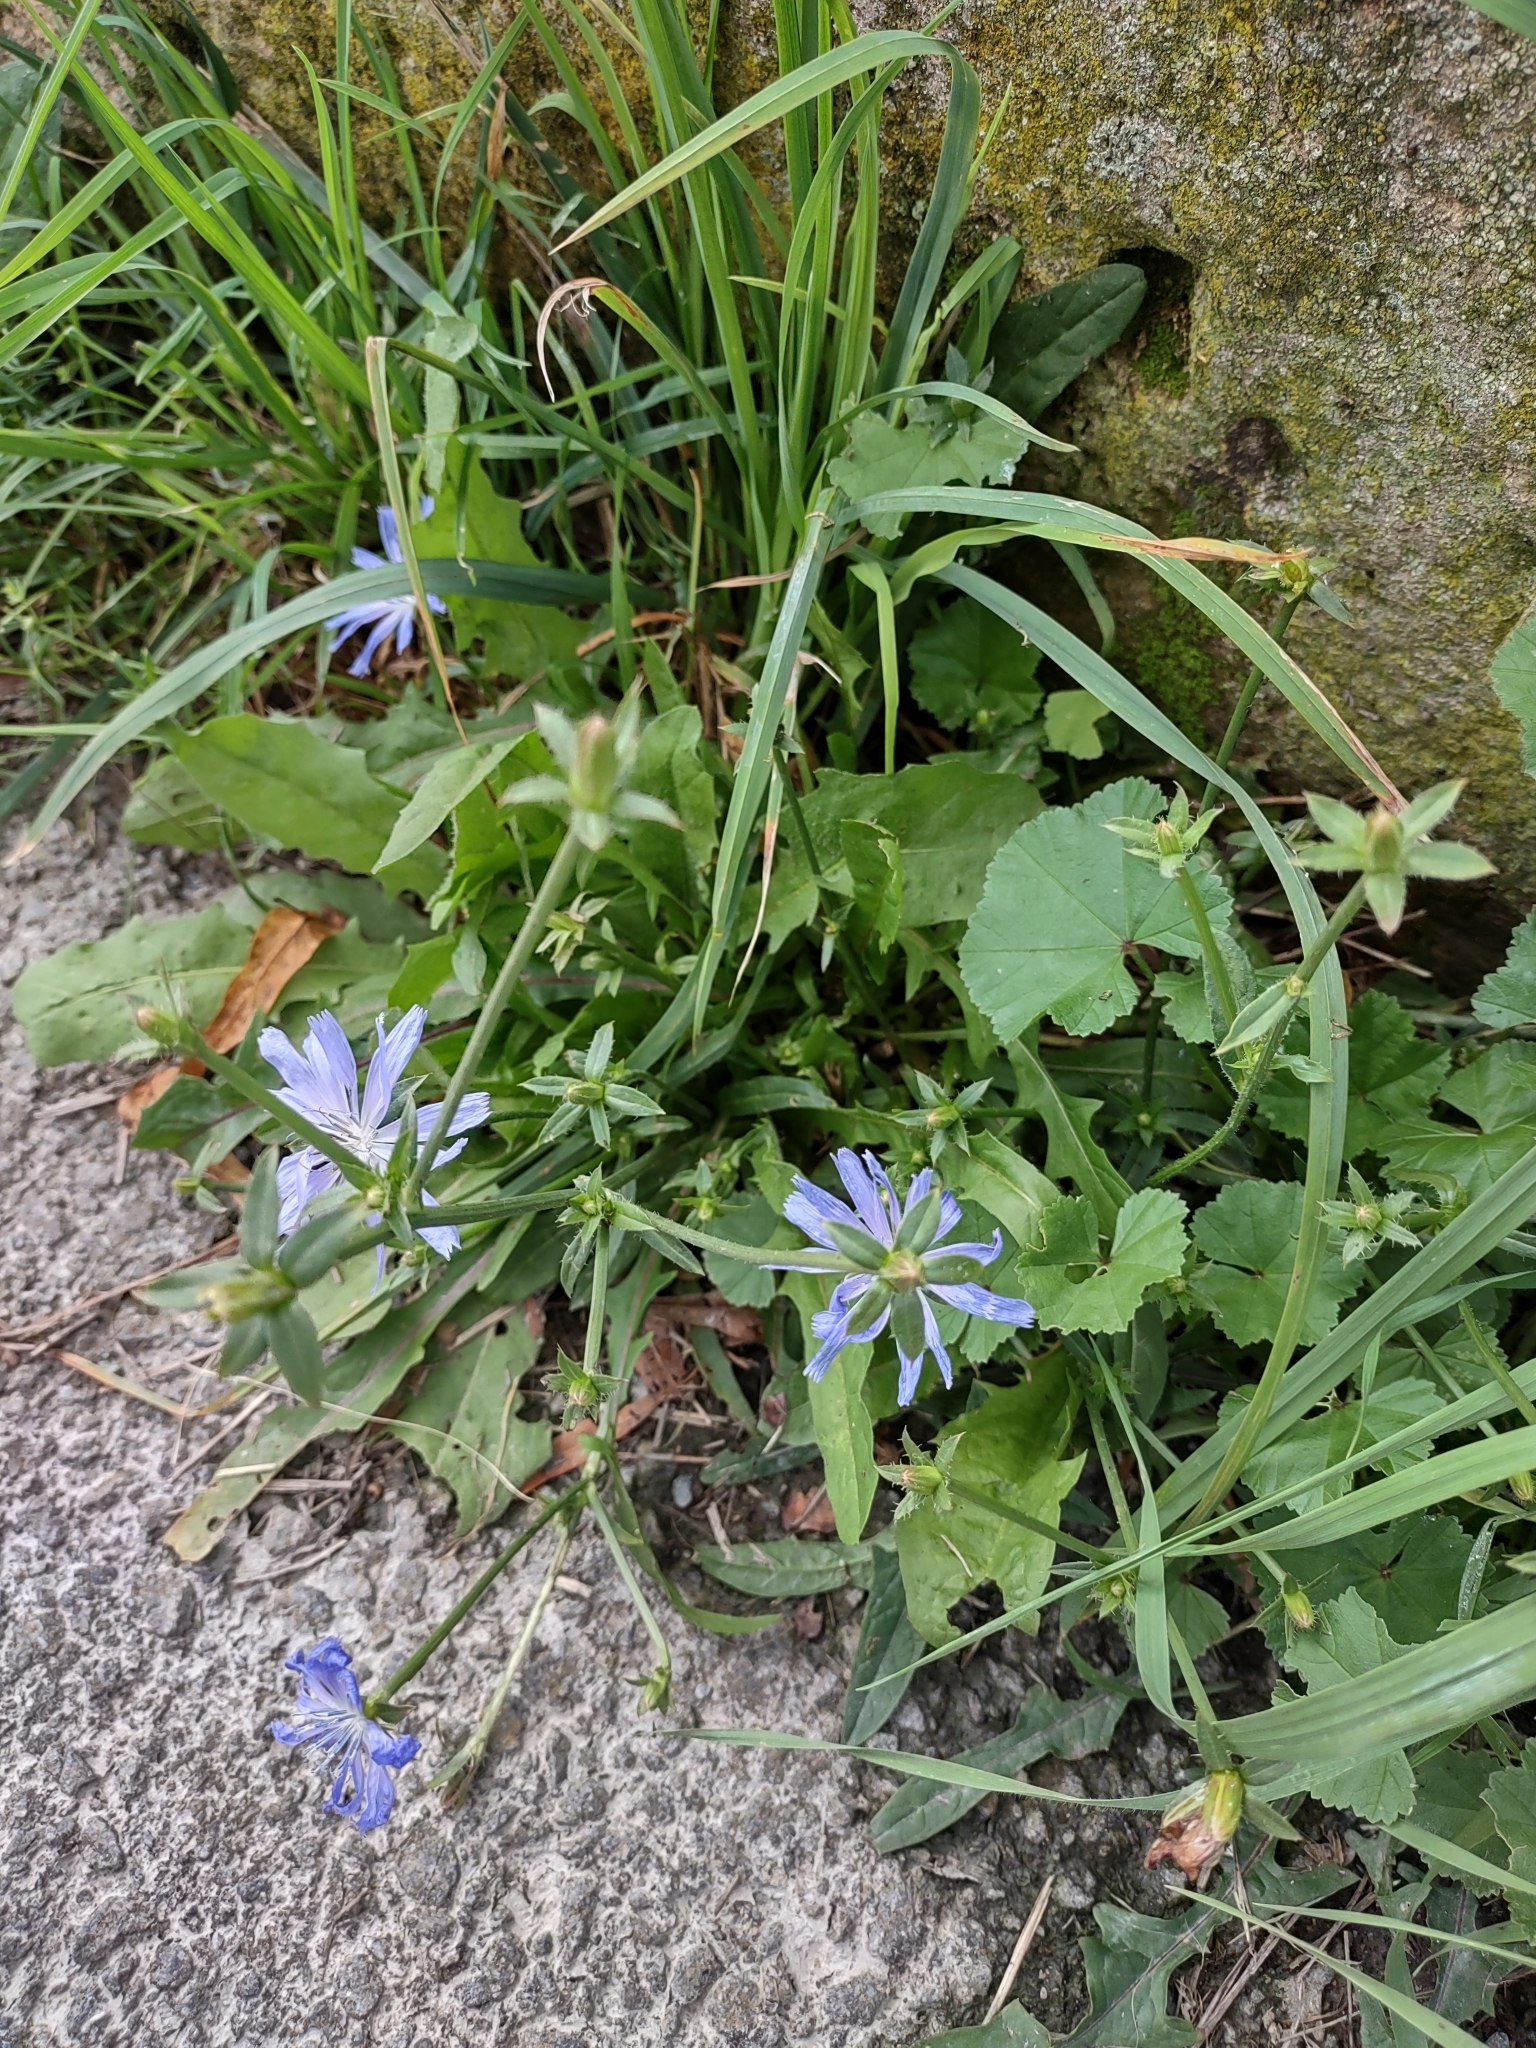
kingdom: Plantae
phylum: Tracheophyta
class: Magnoliopsida
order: Asterales
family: Asteraceae
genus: Cichorium
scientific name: Cichorium intybus
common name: Chicory
